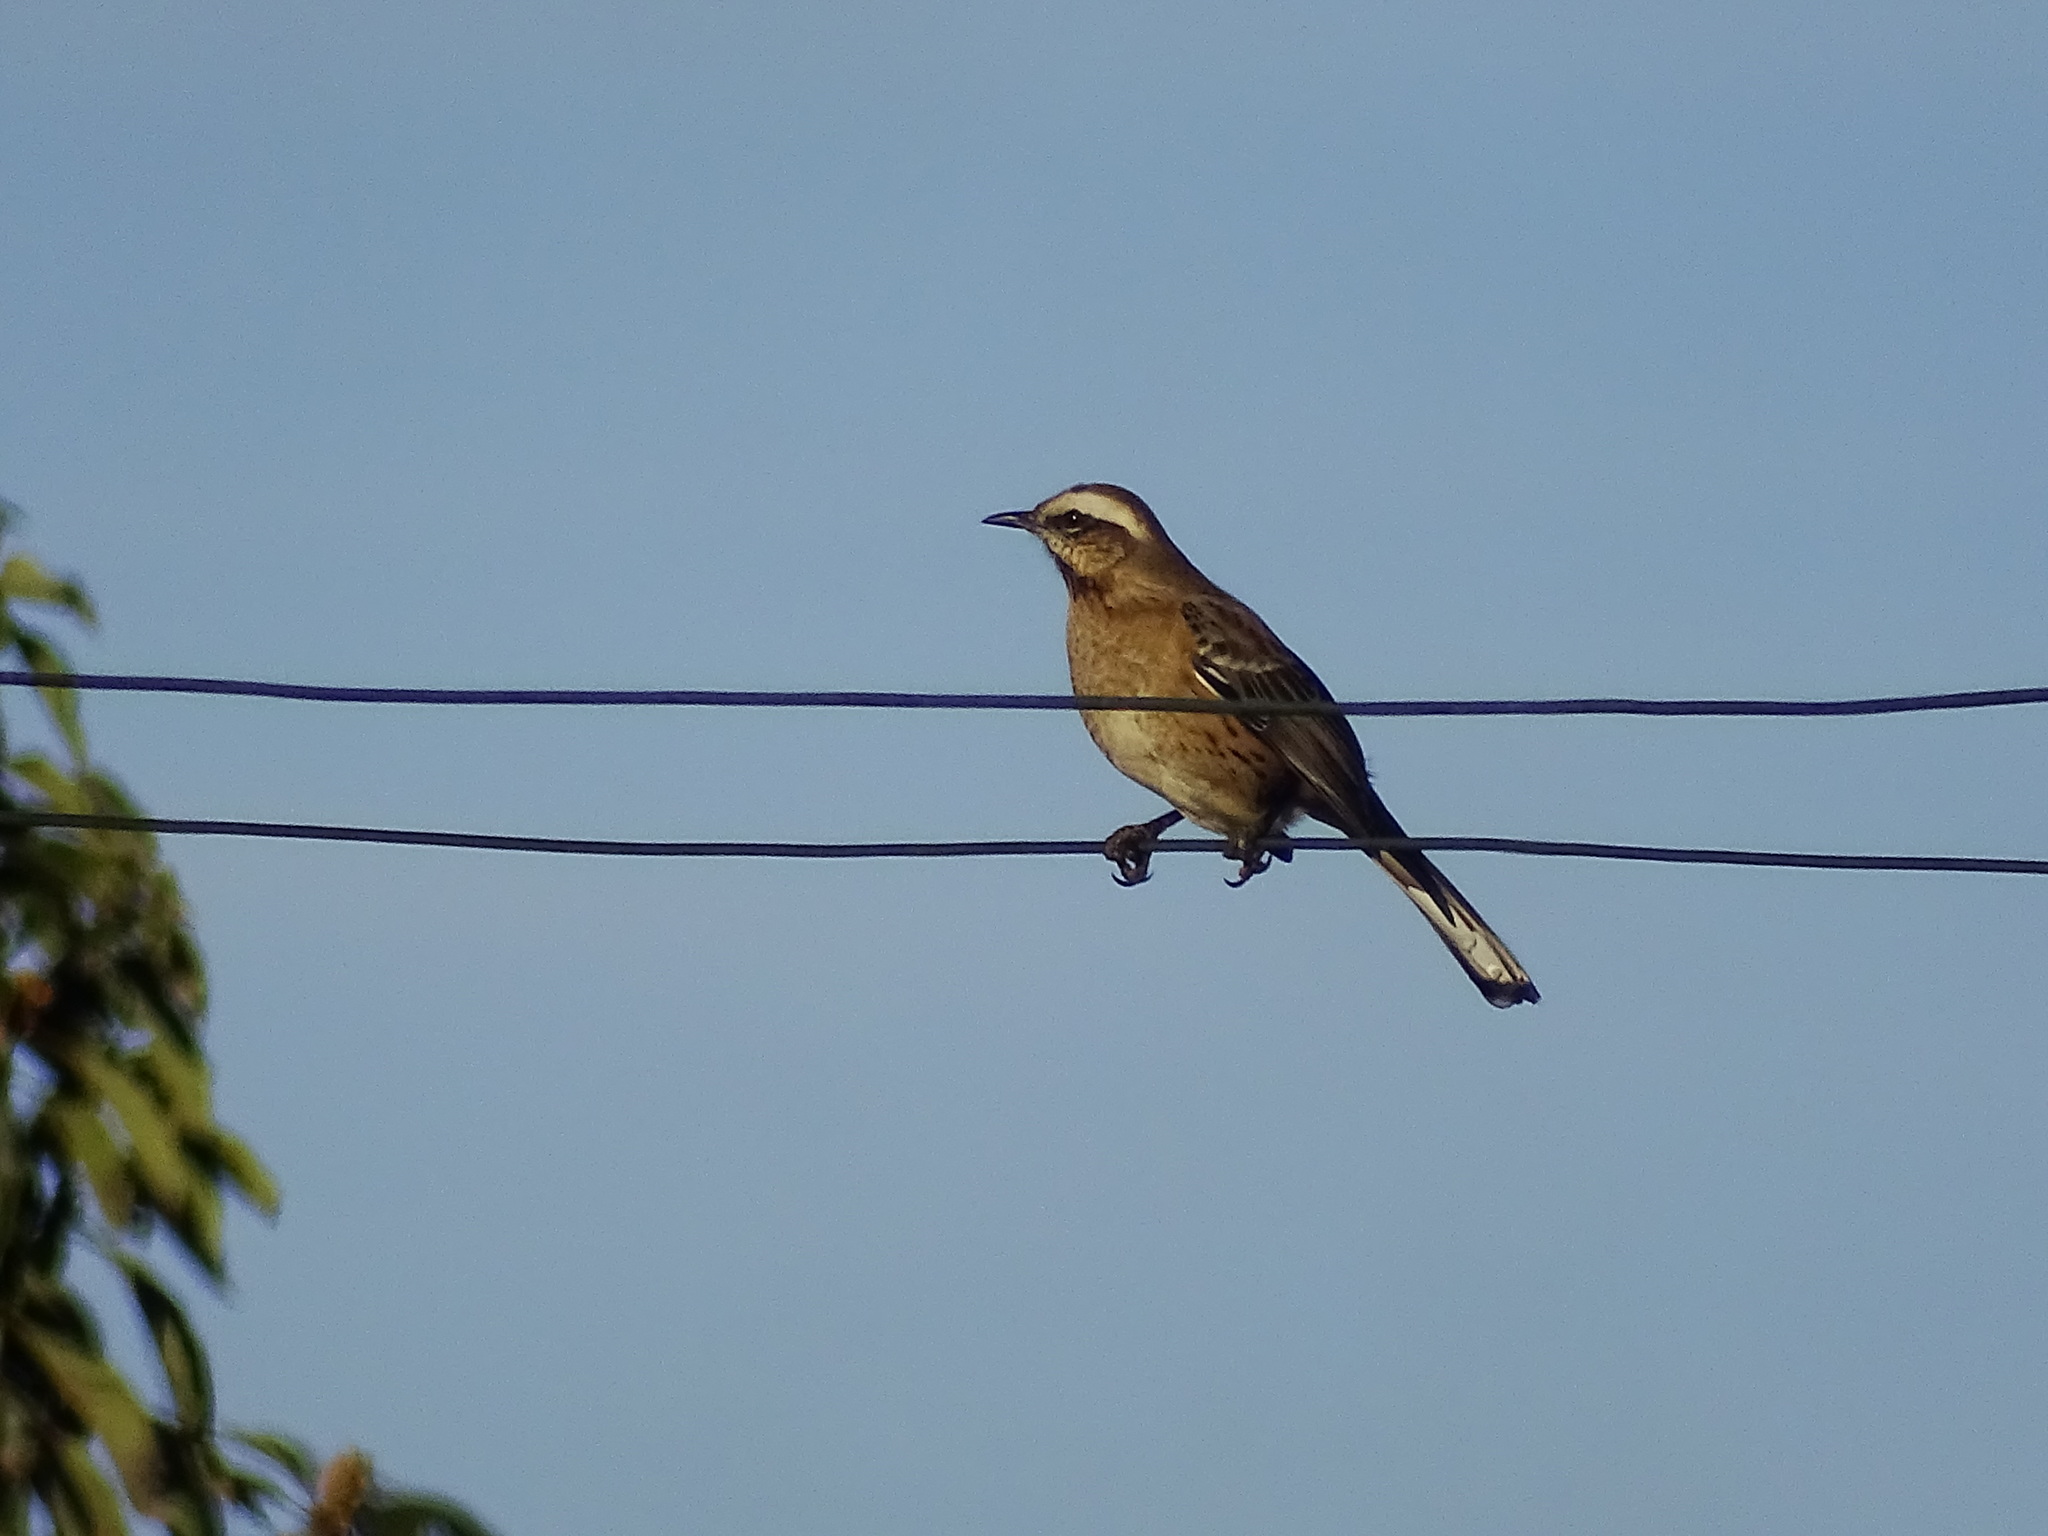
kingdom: Animalia
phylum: Chordata
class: Aves
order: Passeriformes
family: Mimidae
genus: Mimus
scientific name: Mimus thenca
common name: Chilean mockingbird
